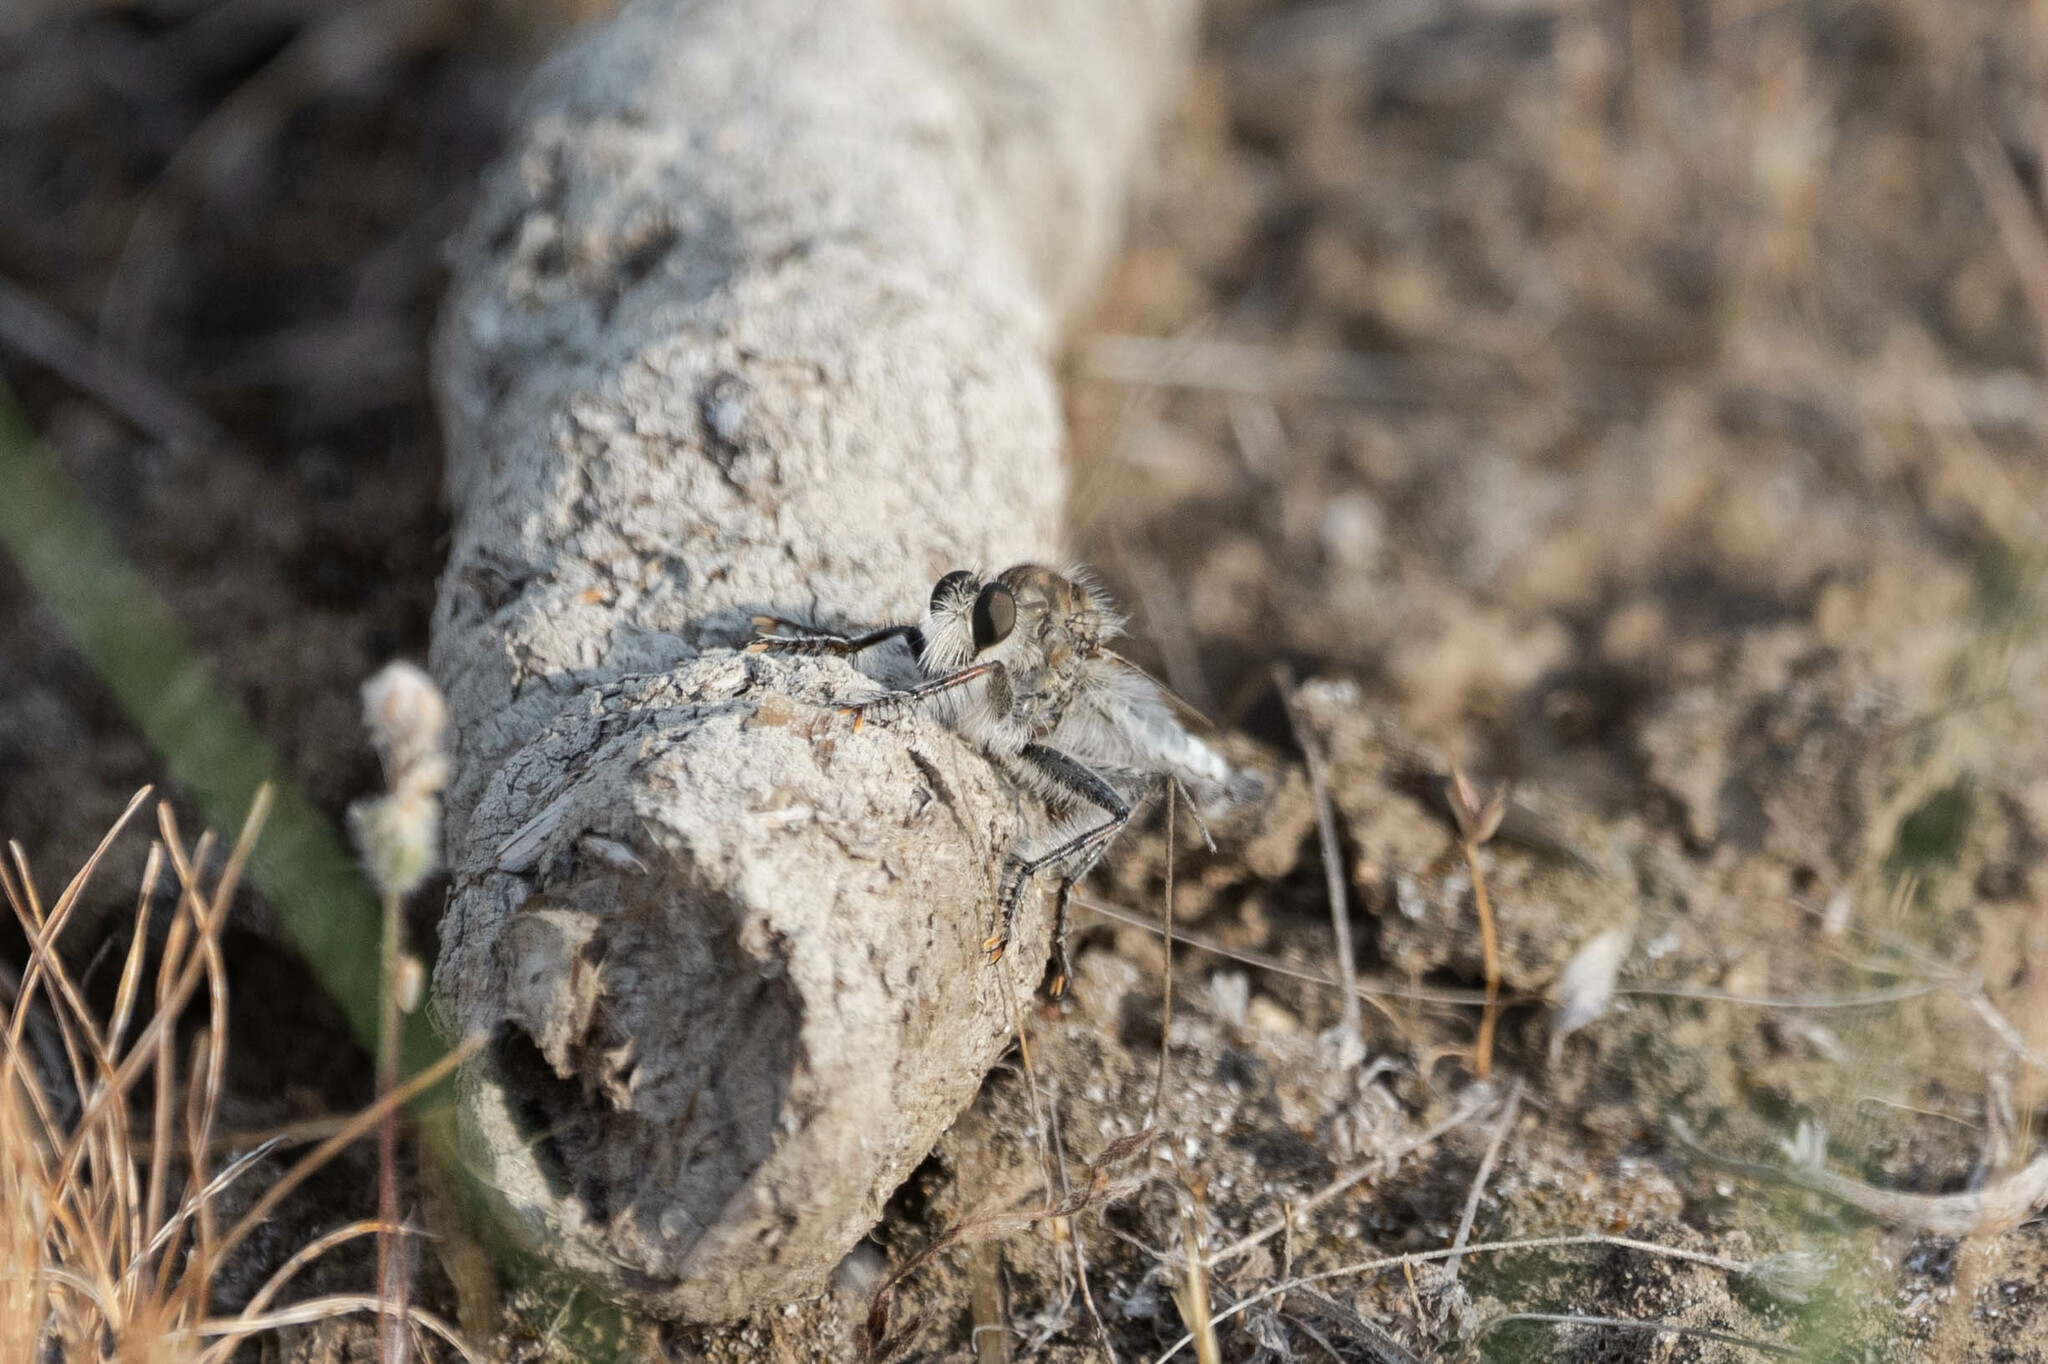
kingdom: Animalia
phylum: Arthropoda
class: Insecta
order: Diptera
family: Asilidae
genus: Efferia
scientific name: Efferia benedicti
